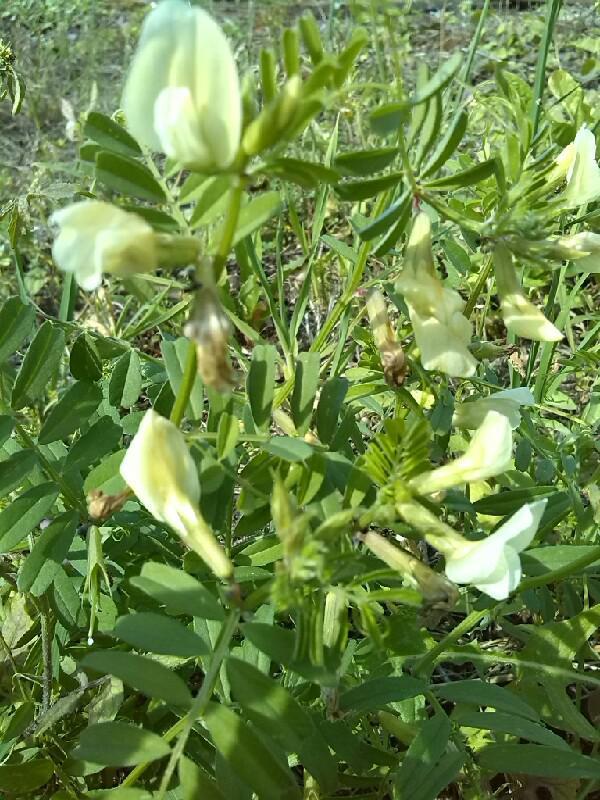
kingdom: Plantae
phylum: Tracheophyta
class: Magnoliopsida
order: Fabales
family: Fabaceae
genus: Vicia
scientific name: Vicia grandiflora
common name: Large yellow vetch
